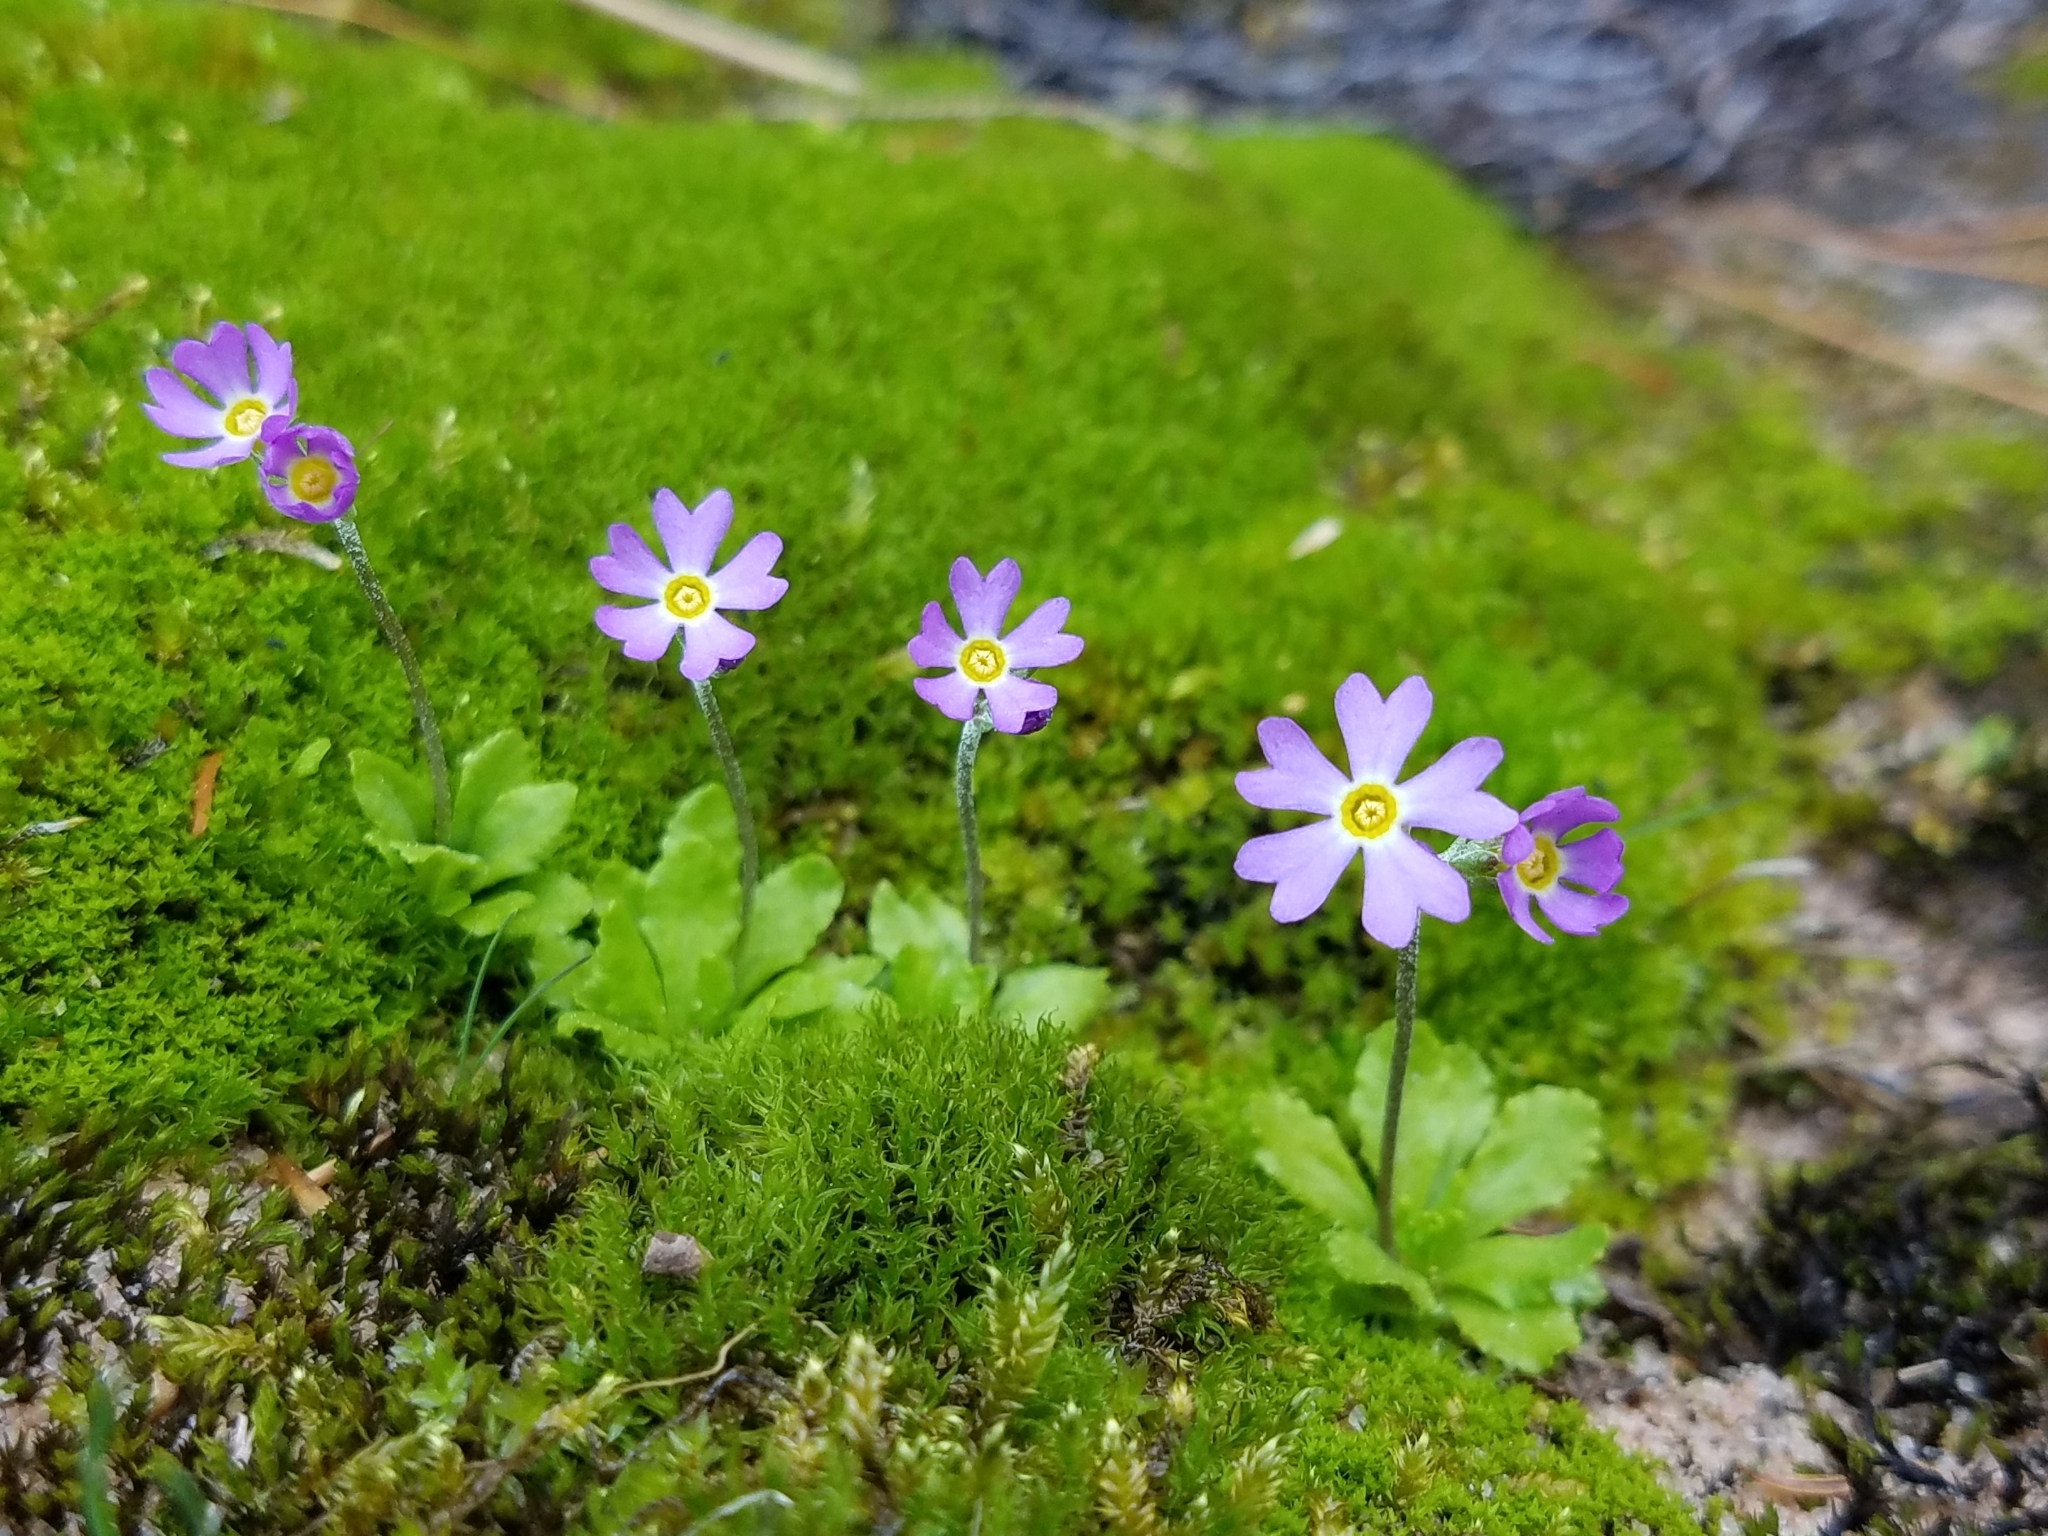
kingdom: Plantae
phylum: Tracheophyta
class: Magnoliopsida
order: Ericales
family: Primulaceae
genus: Primula
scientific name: Primula mistassinica
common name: Bird's-eye primrose
